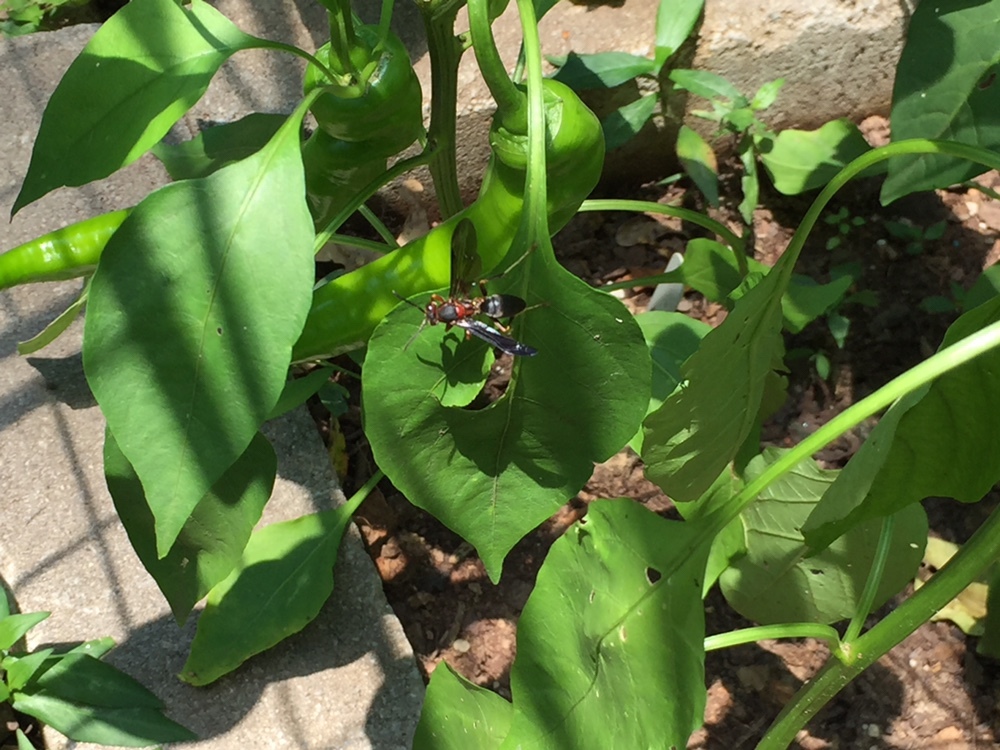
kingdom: Animalia
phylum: Arthropoda
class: Insecta
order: Hymenoptera
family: Eumenidae
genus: Polistes
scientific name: Polistes fuscatus
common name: Dark paper wasp
